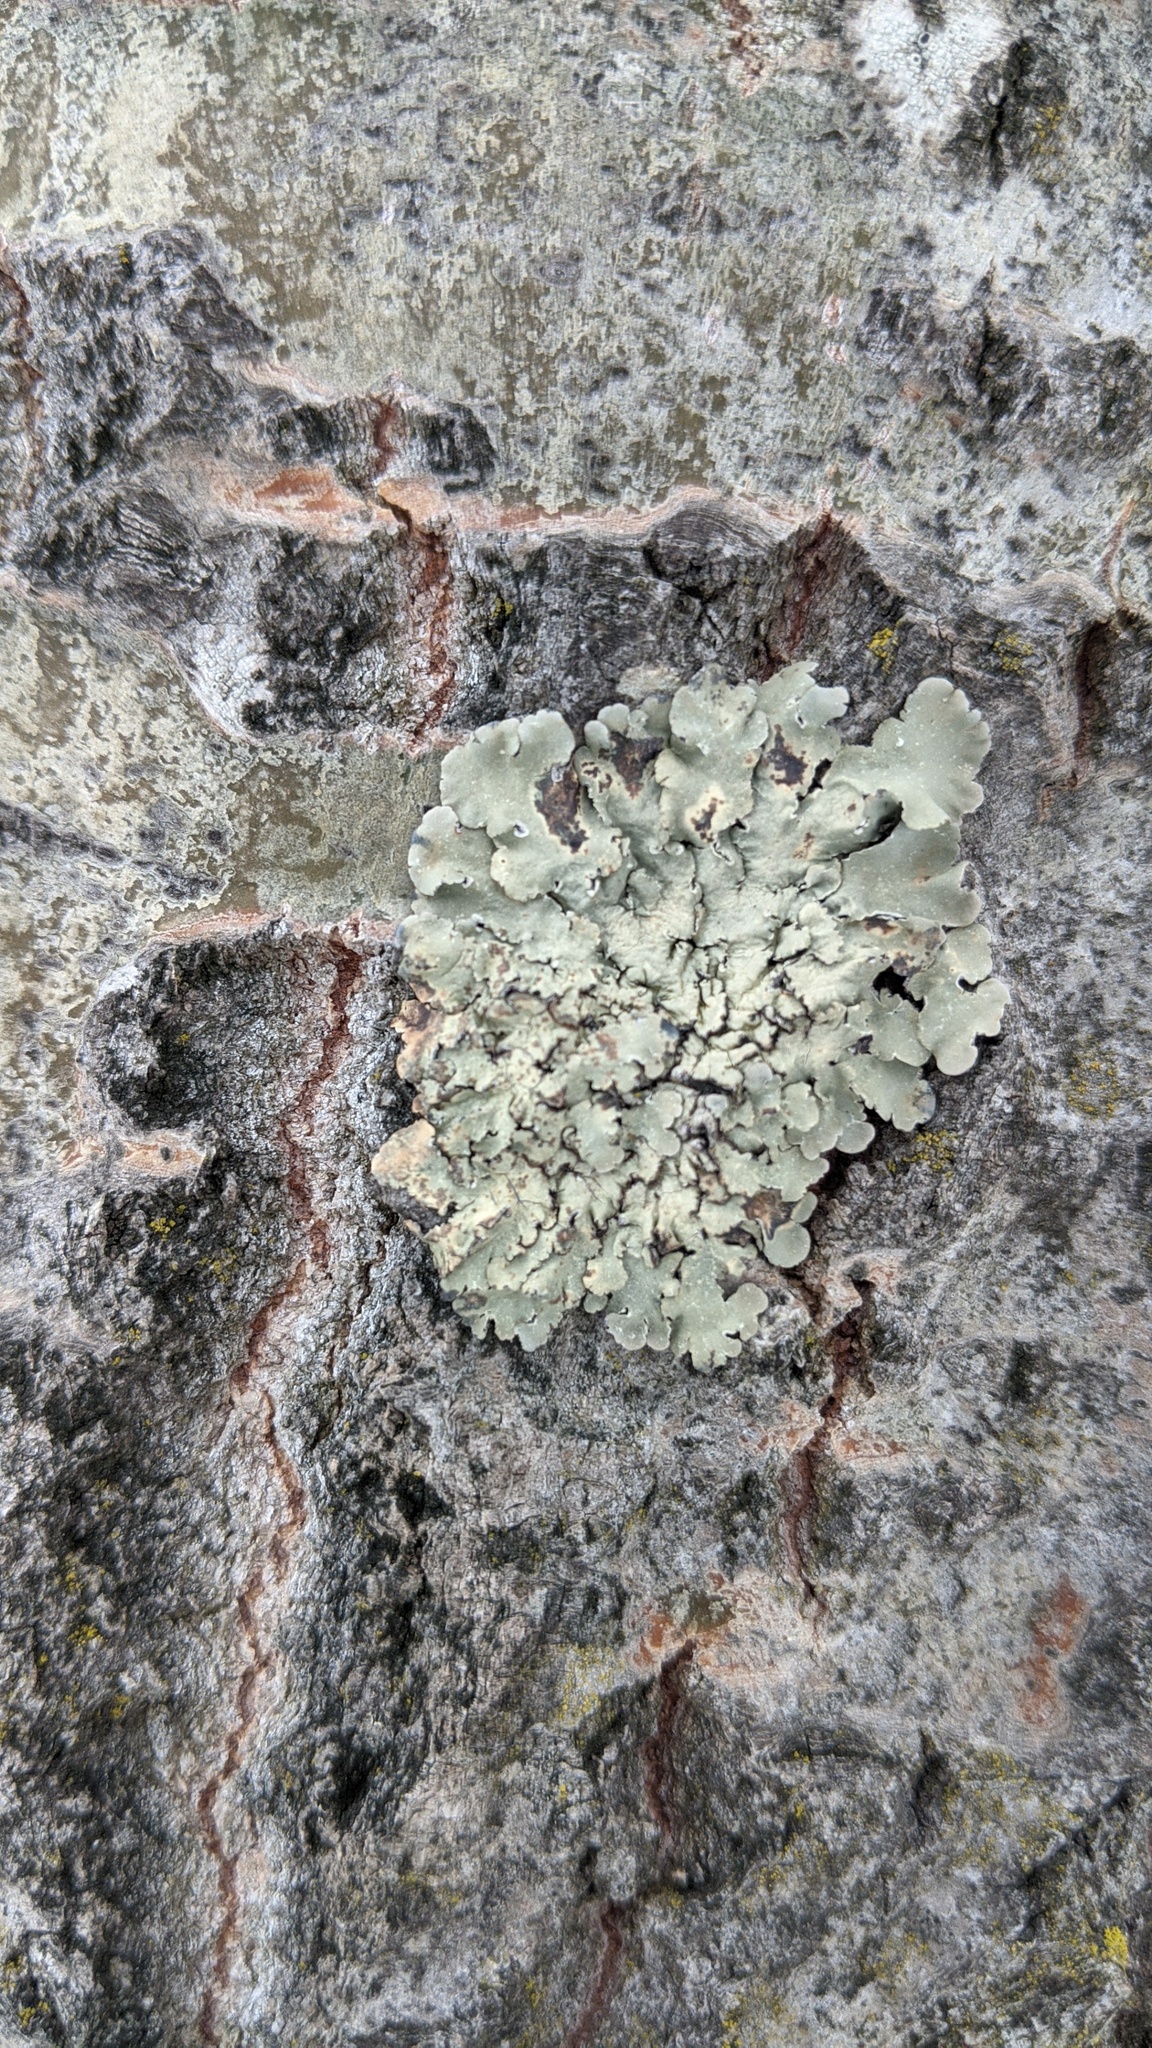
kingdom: Fungi
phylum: Ascomycota
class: Lecanoromycetes
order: Lecanorales
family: Parmeliaceae
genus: Flavoparmelia
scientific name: Flavoparmelia caperata
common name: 40-mile per hour lichen
